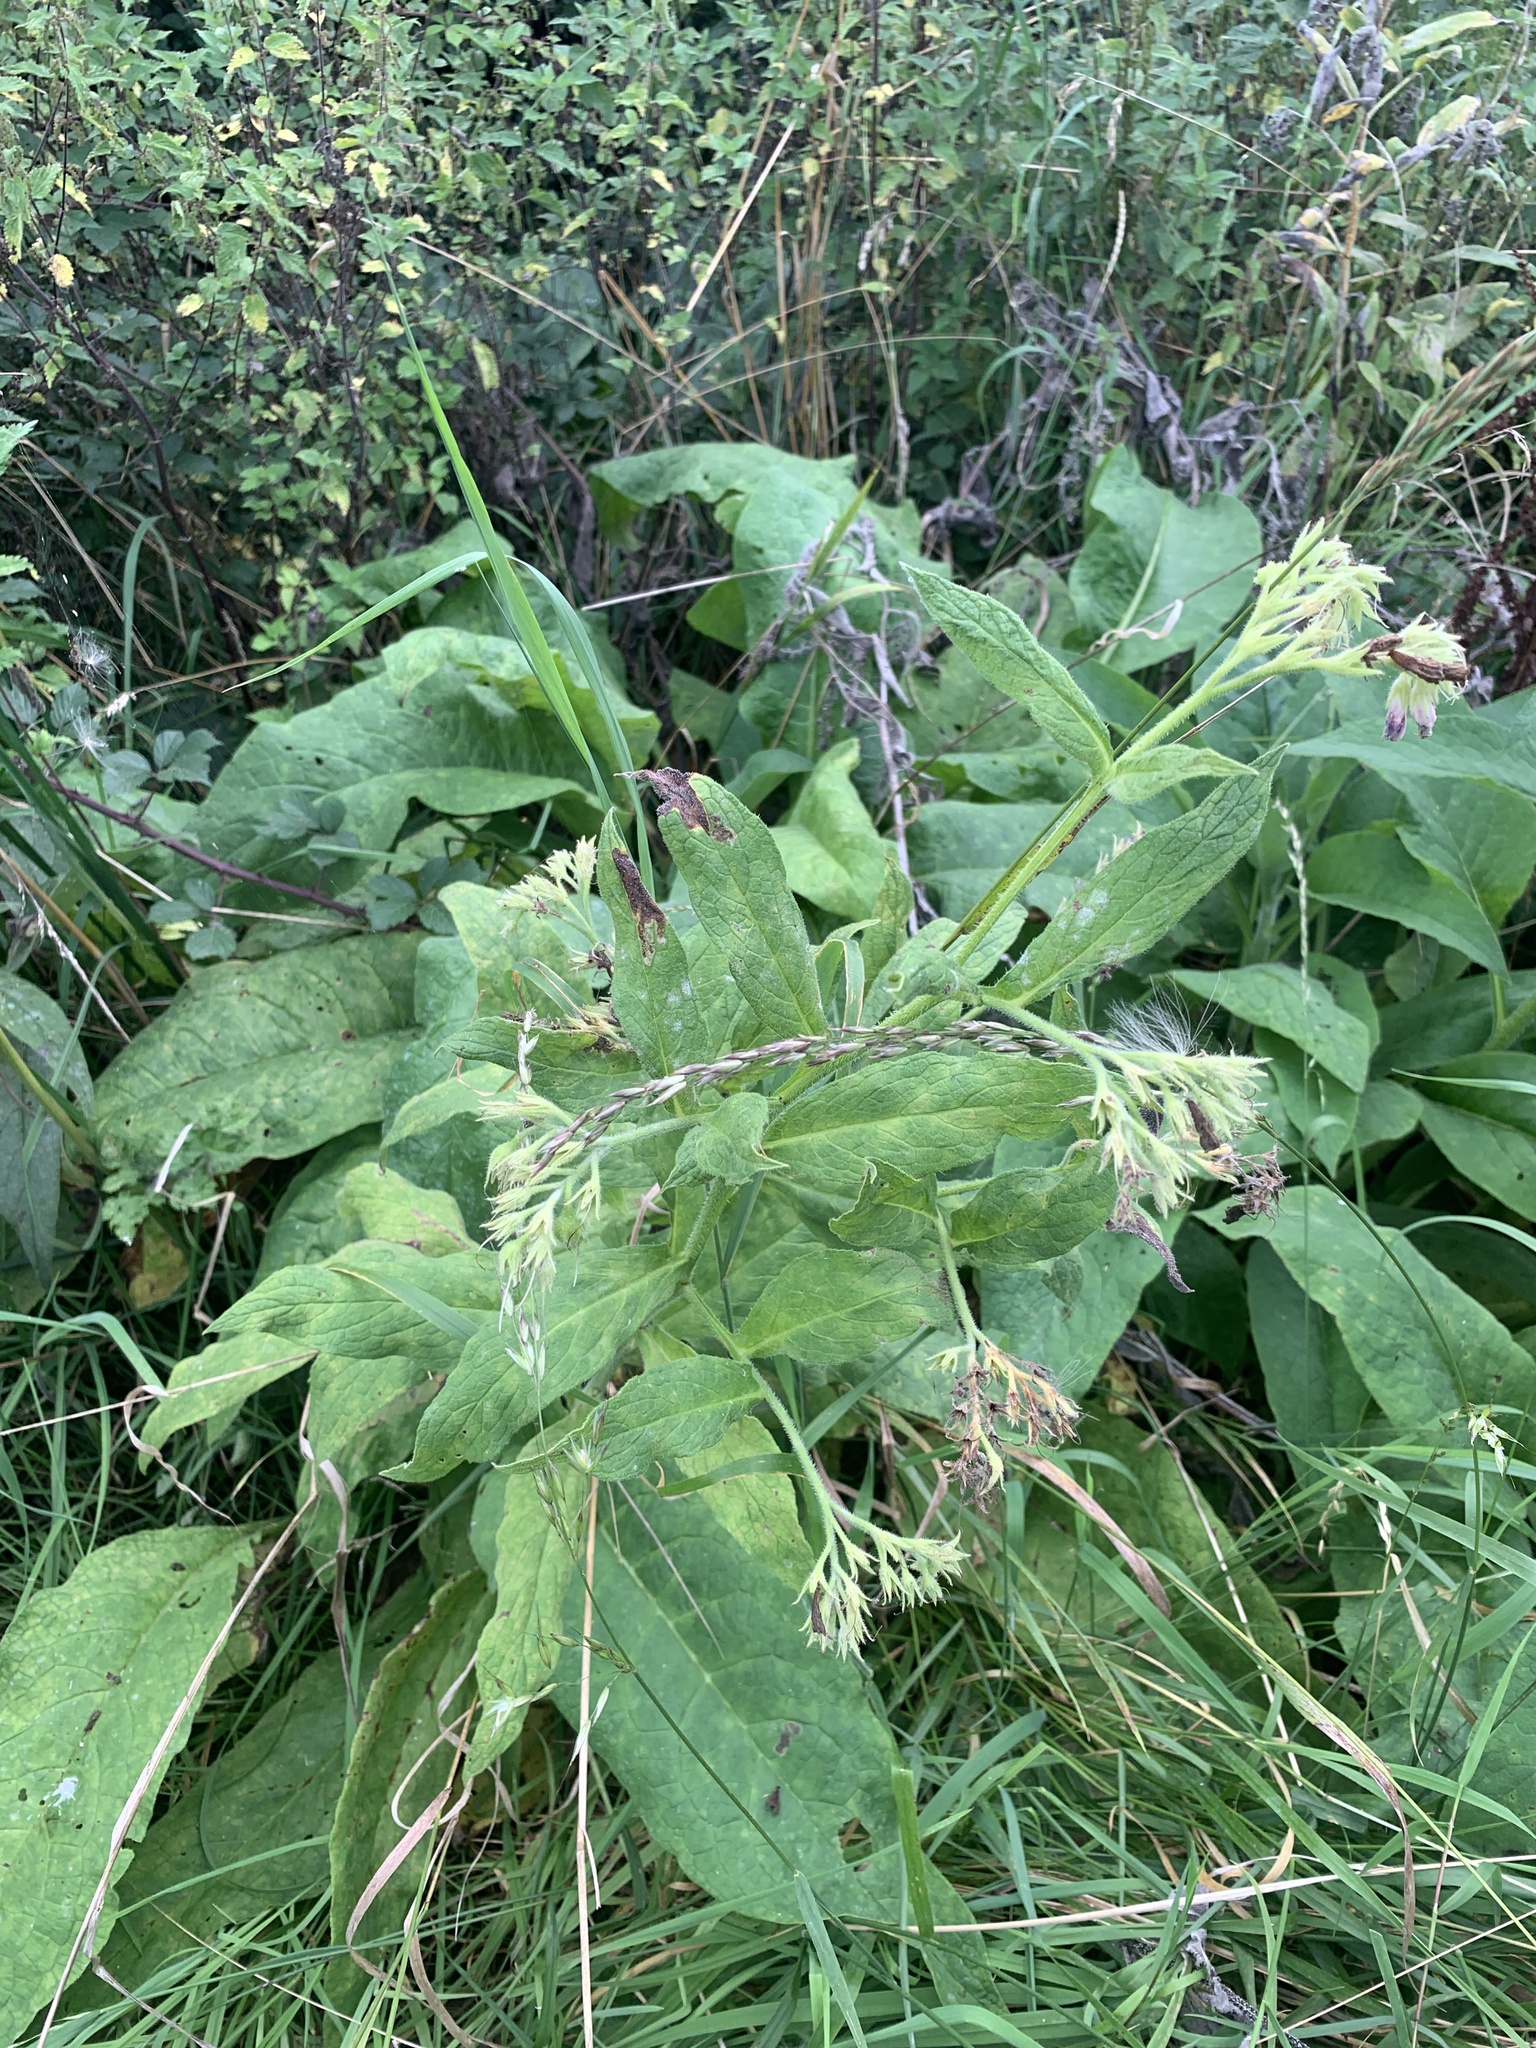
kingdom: Plantae
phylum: Tracheophyta
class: Magnoliopsida
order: Boraginales
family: Boraginaceae
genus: Symphytum
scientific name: Symphytum officinale
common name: Common comfrey
